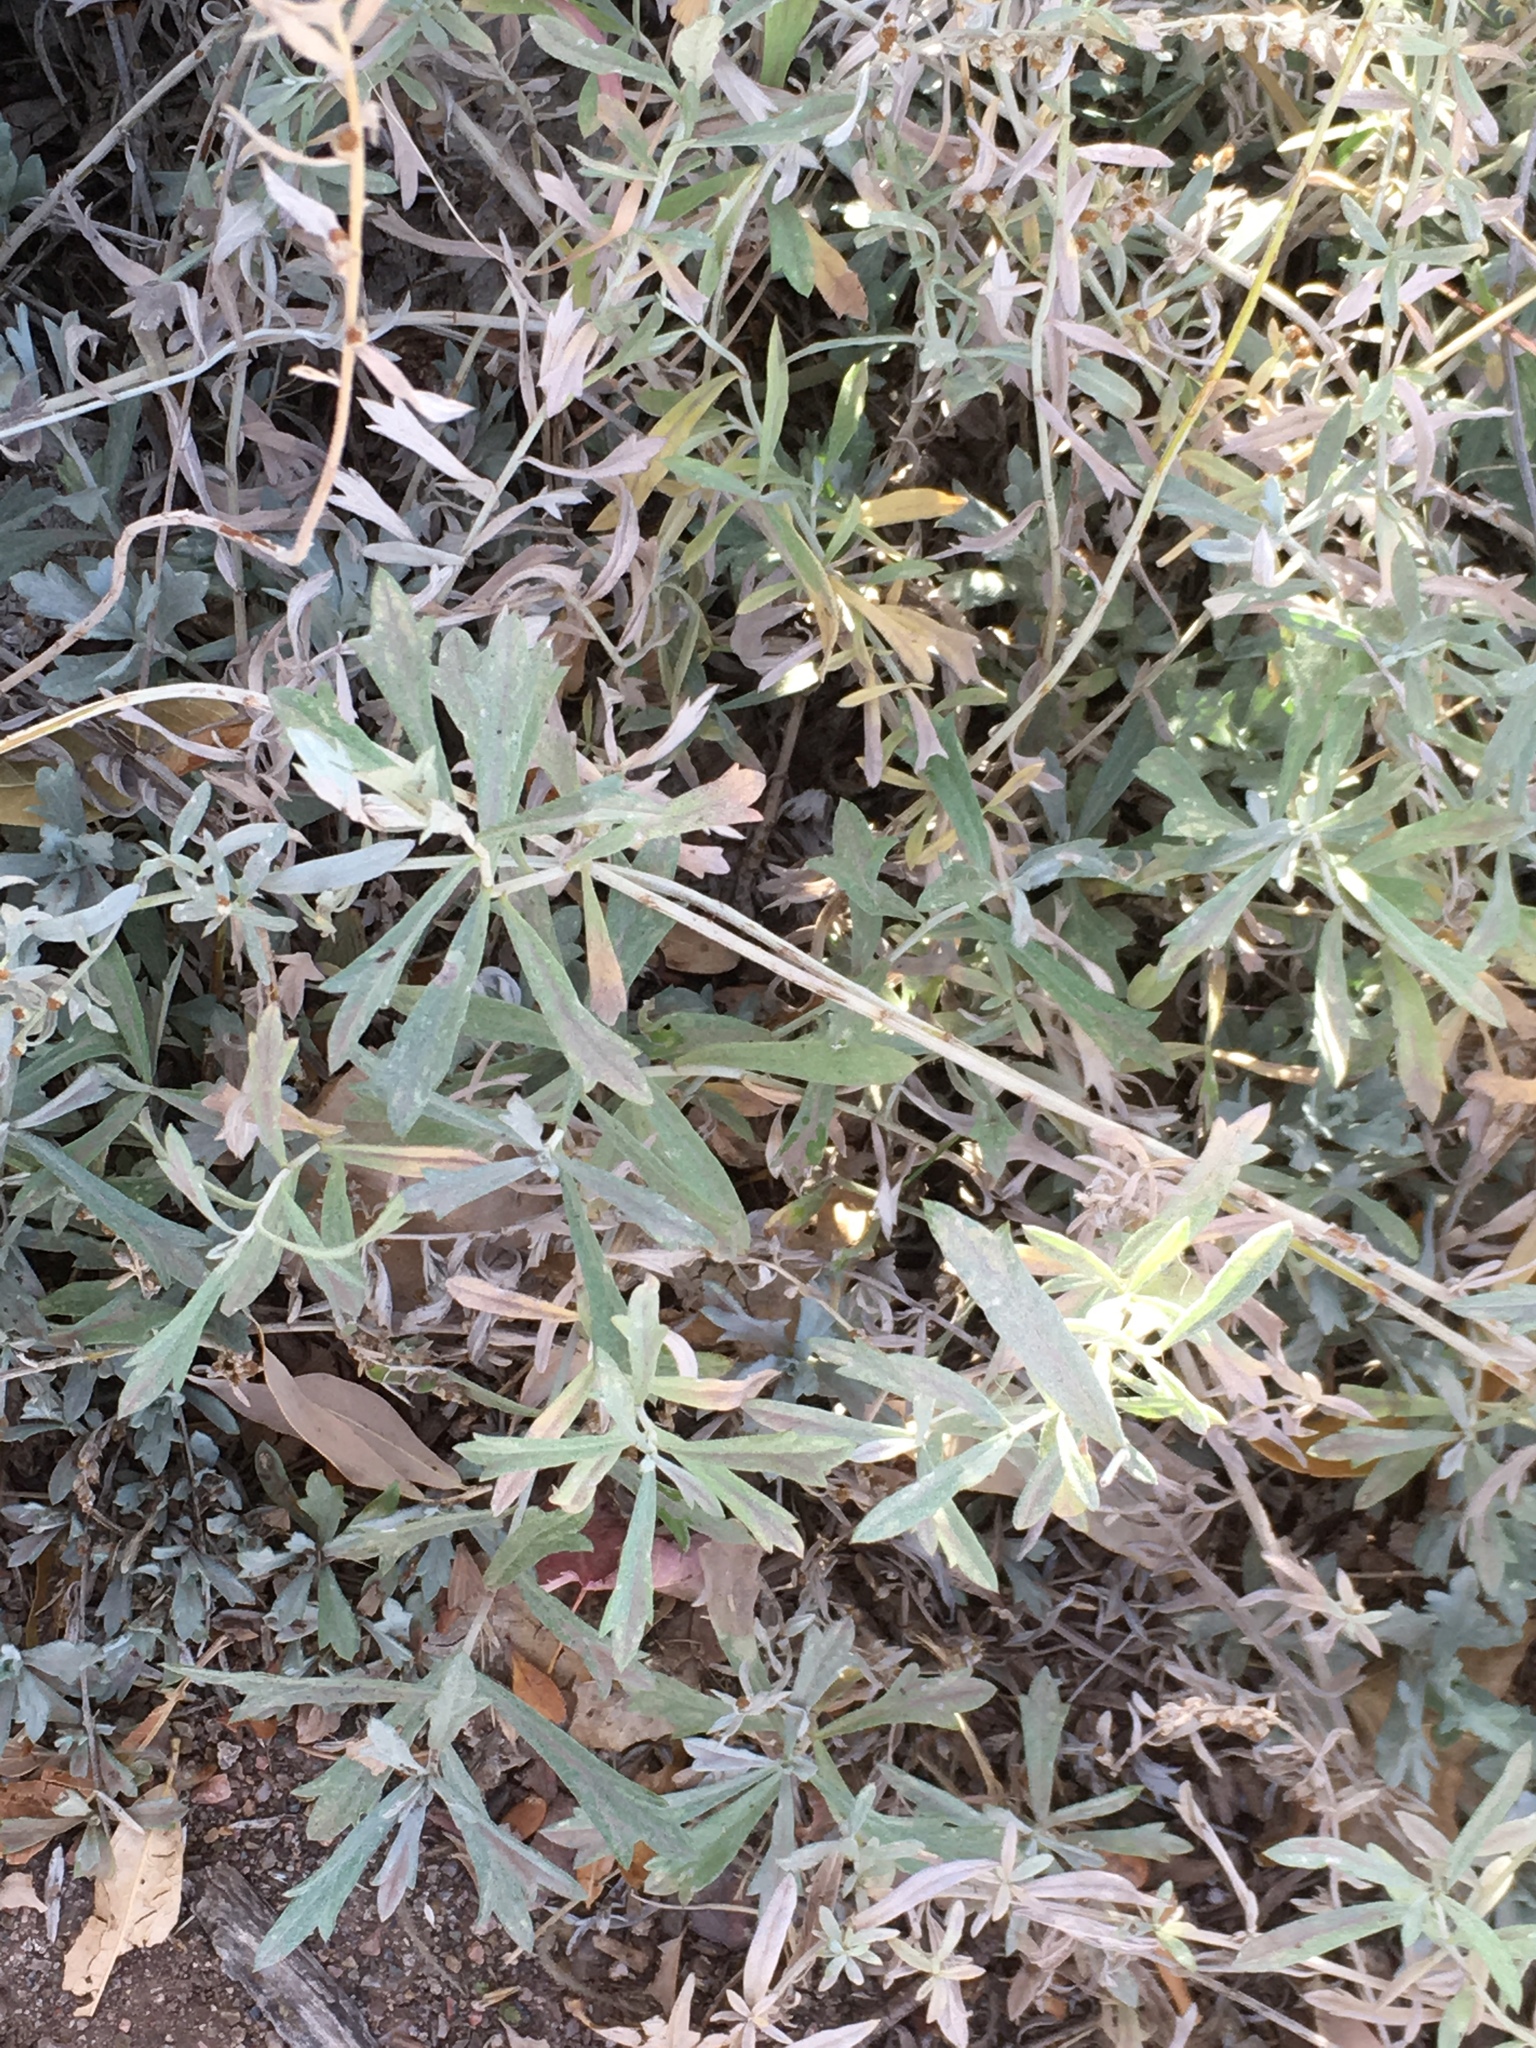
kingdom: Plantae
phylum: Tracheophyta
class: Magnoliopsida
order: Asterales
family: Asteraceae
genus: Artemisia
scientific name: Artemisia ludoviciana
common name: Western mugwort
